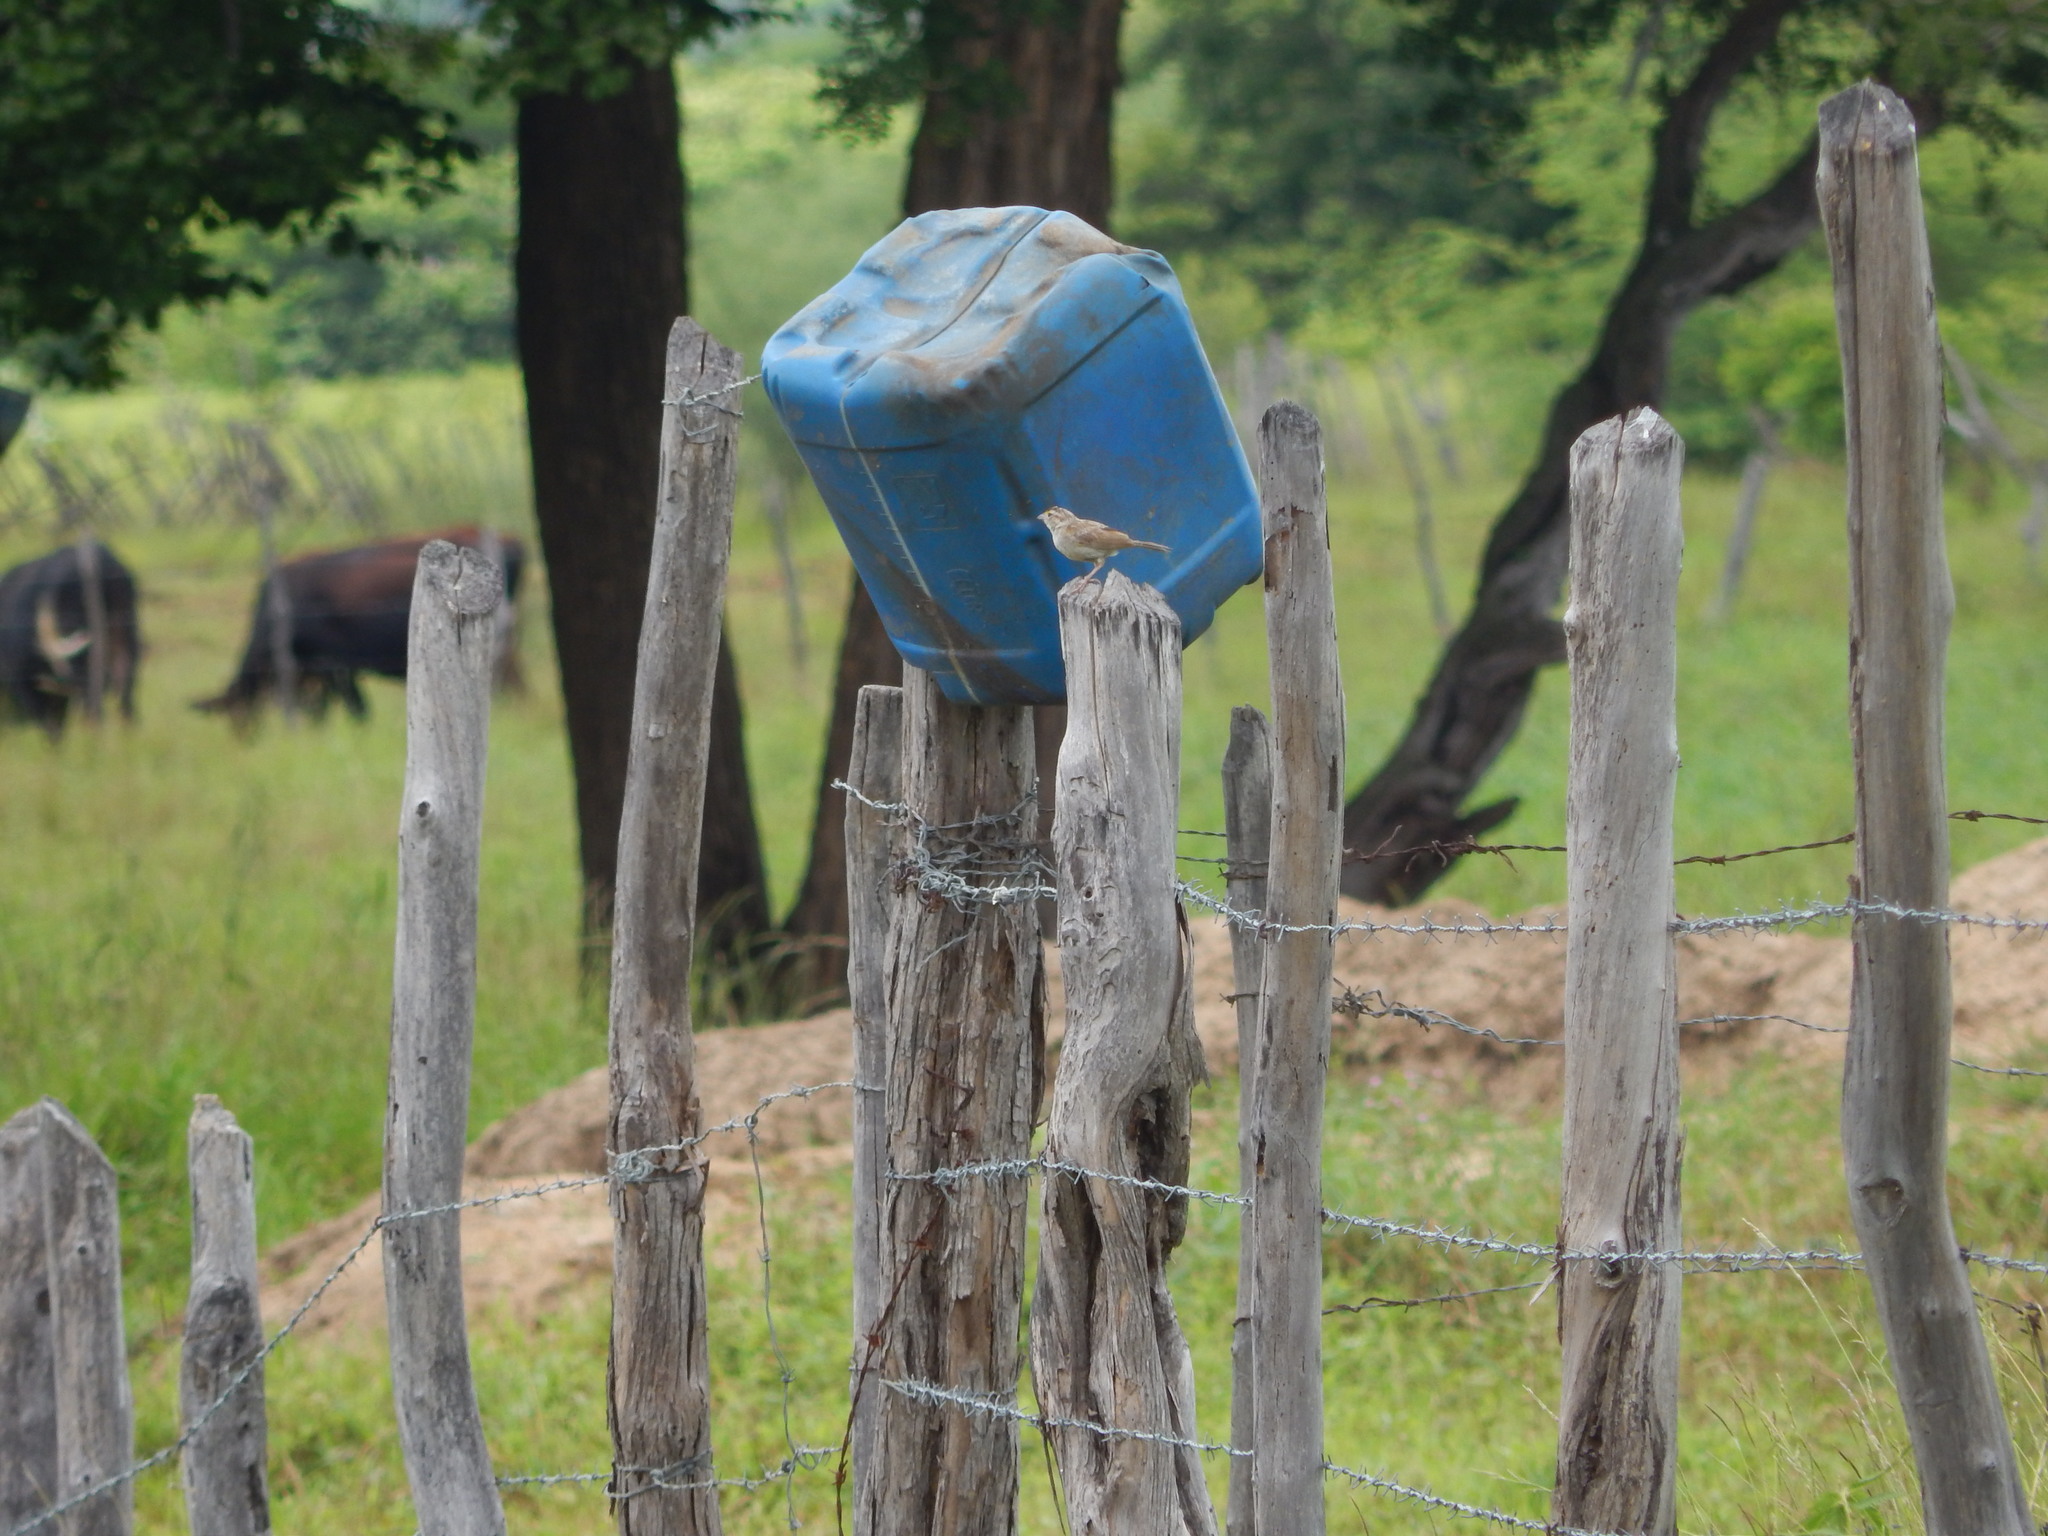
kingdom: Animalia
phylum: Chordata
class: Aves
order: Passeriformes
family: Passerellidae
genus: Ammodramus
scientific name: Ammodramus humeralis
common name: Grassland sparrow
